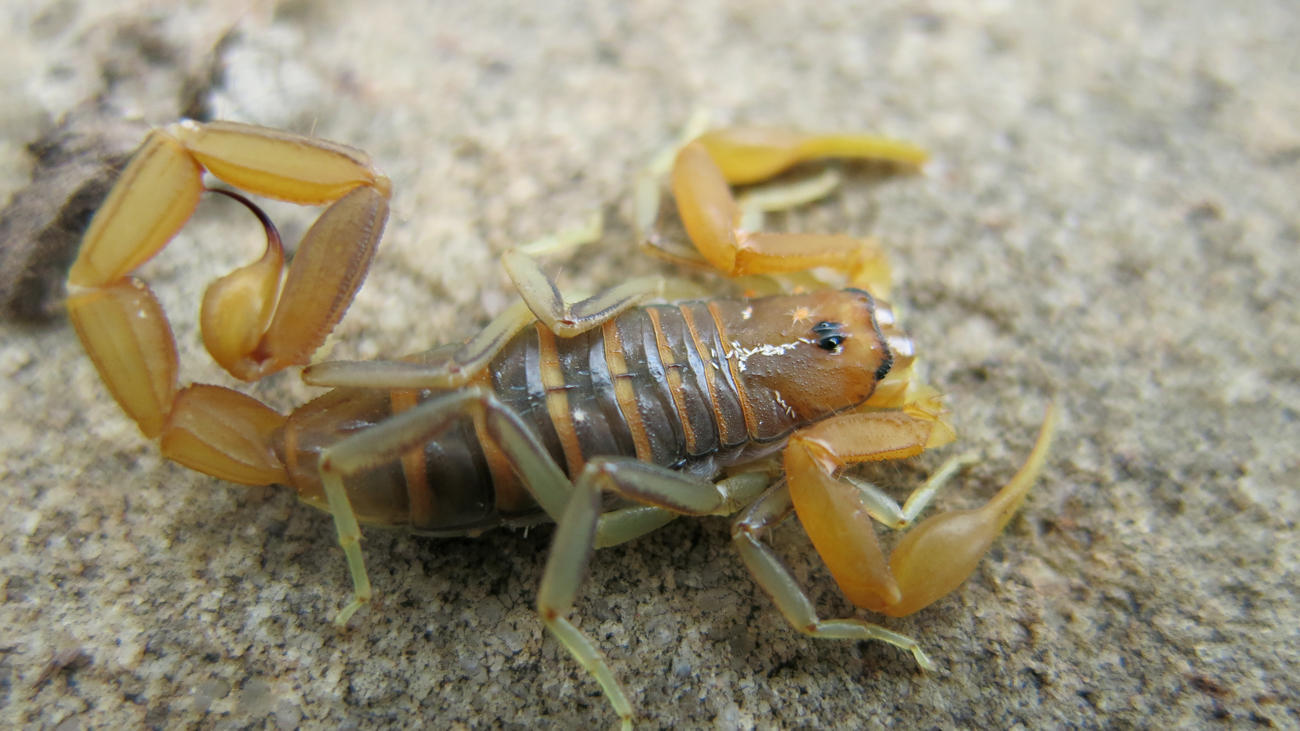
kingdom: Animalia
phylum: Arthropoda
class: Arachnida
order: Scorpiones
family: Buthidae
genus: Uroplectes
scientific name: Uroplectes planimanus
